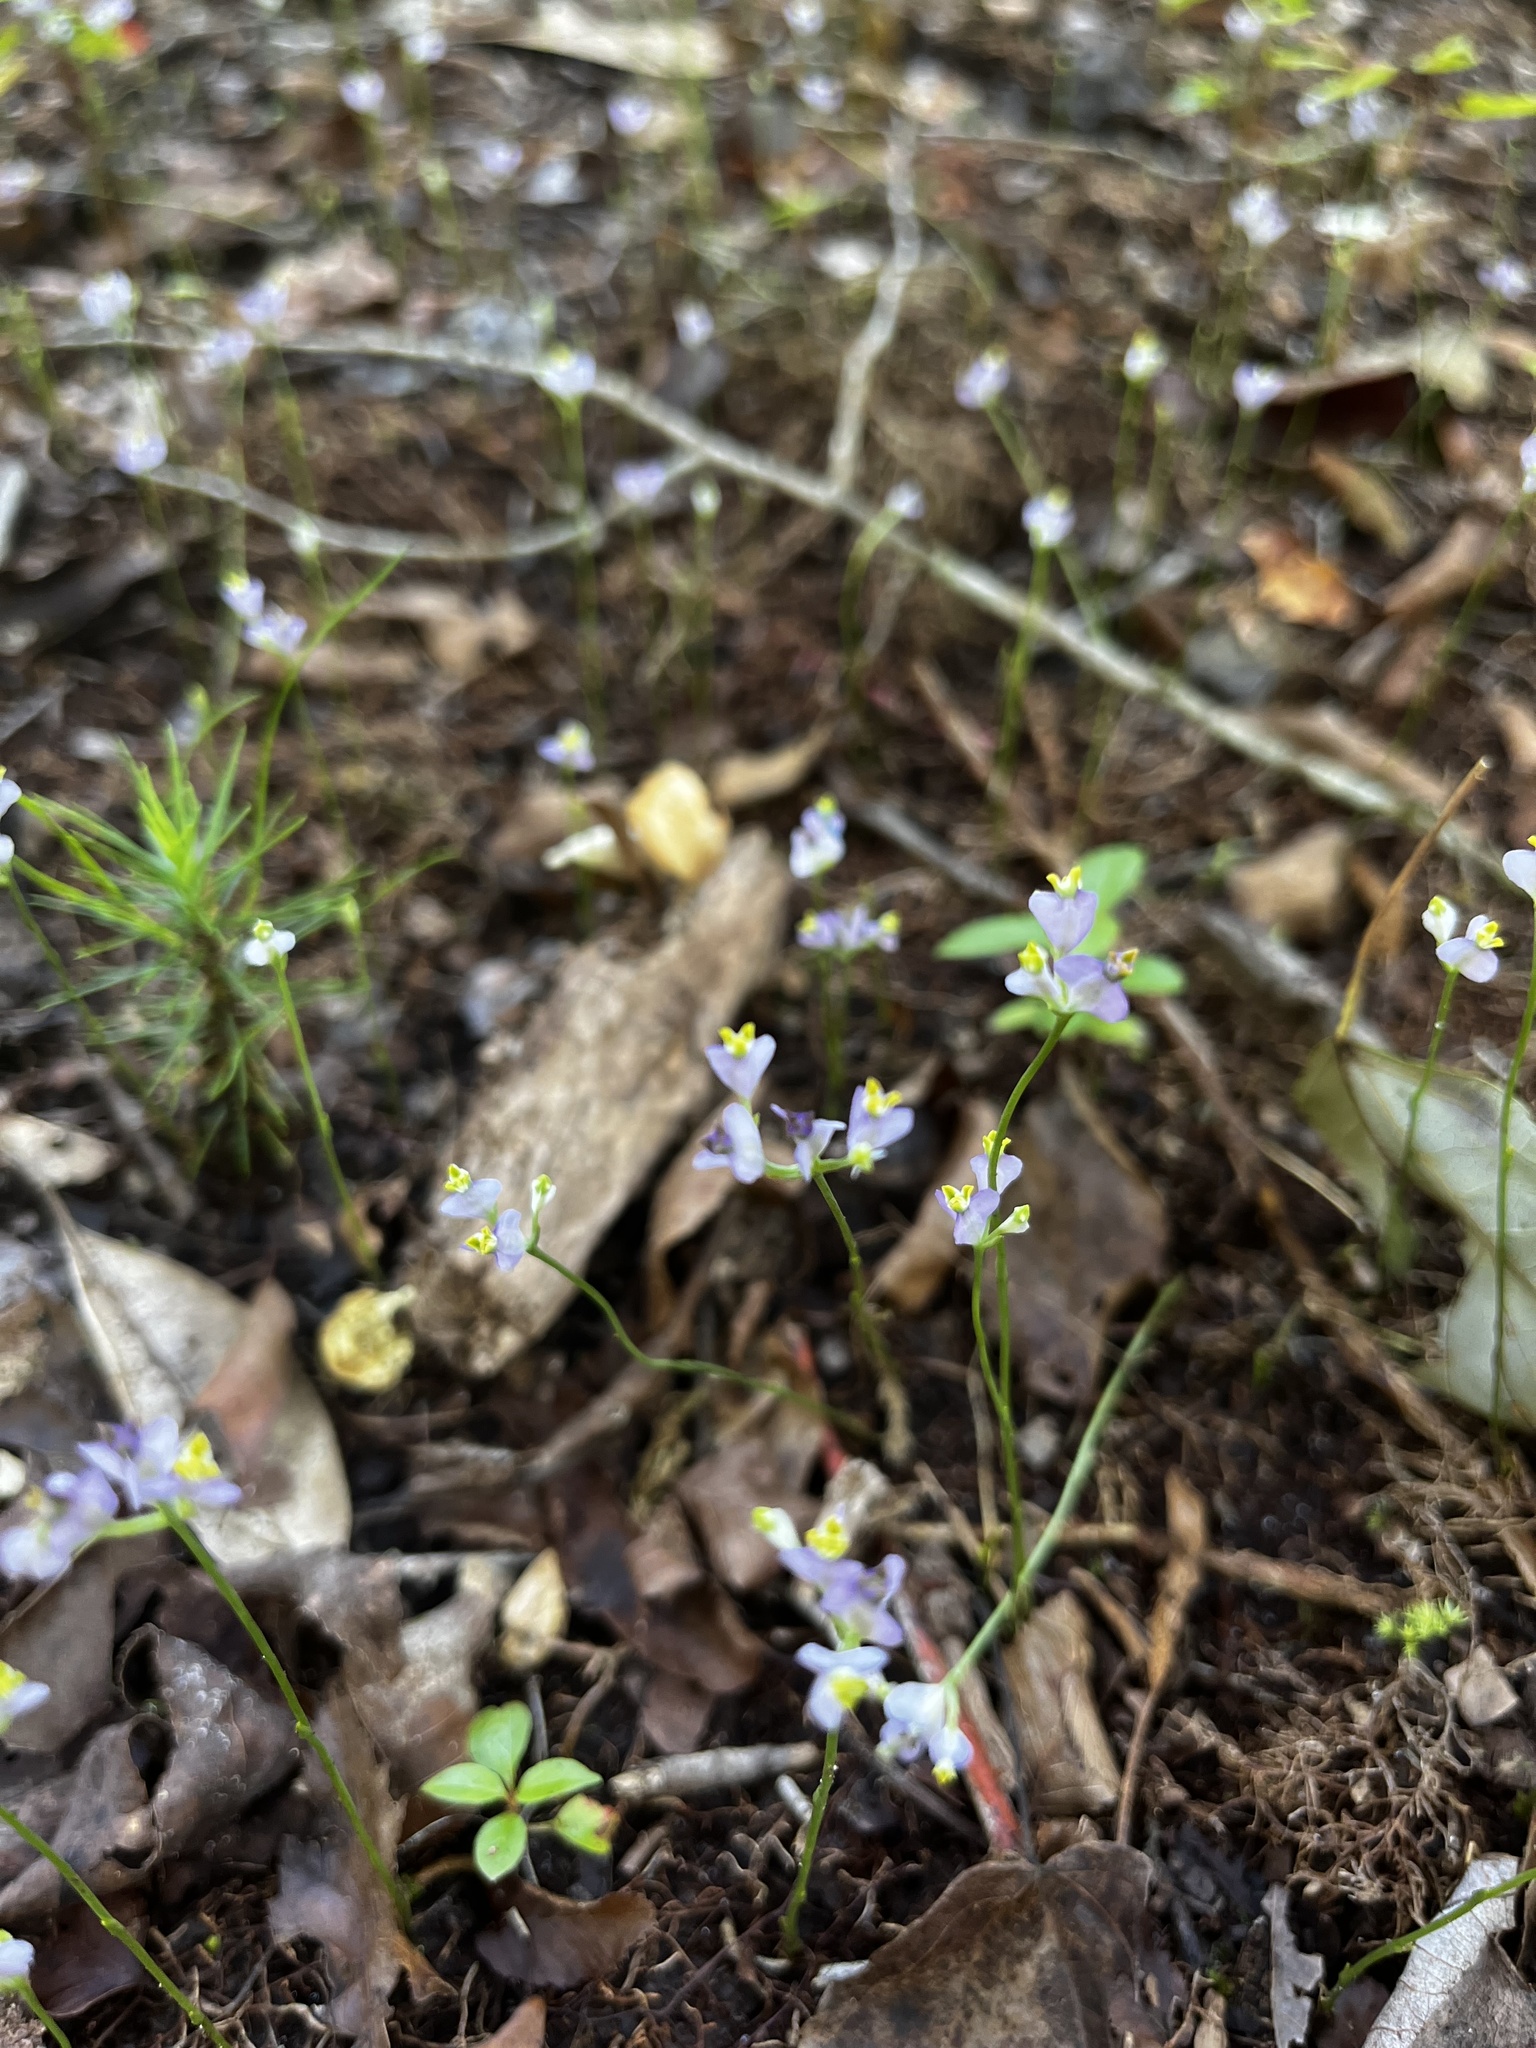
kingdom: Plantae
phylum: Tracheophyta
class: Liliopsida
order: Dioscoreales
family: Burmanniaceae
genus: Burmannia
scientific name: Burmannia biflora
